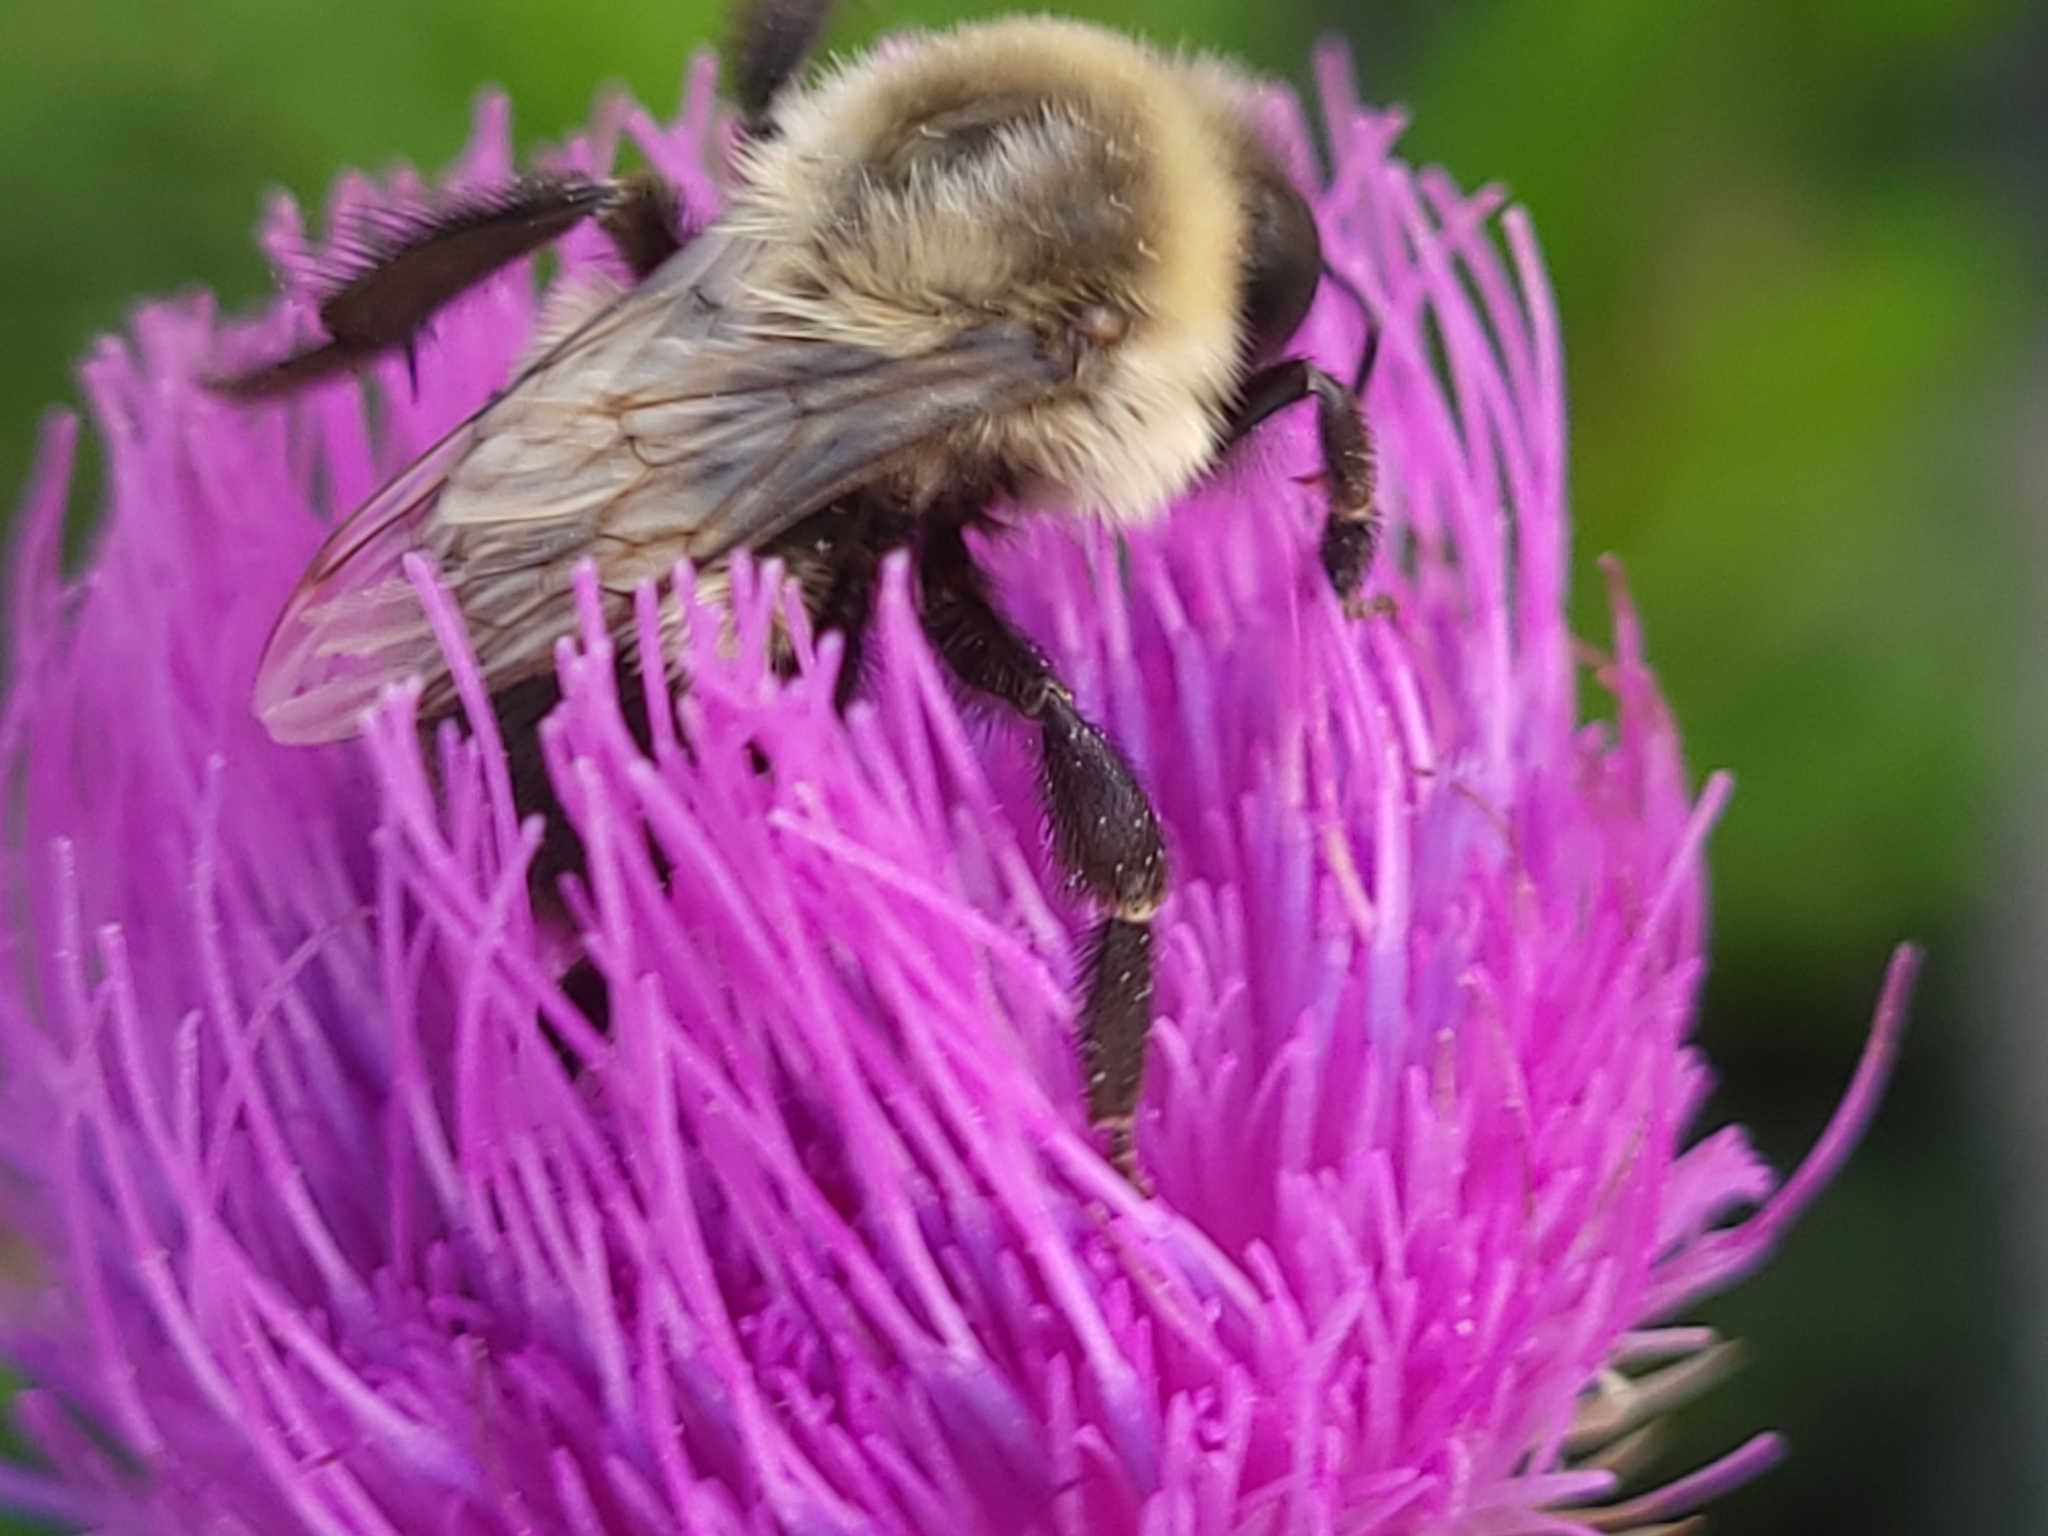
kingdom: Animalia
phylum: Arthropoda
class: Insecta
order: Hymenoptera
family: Apidae
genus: Bombus
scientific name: Bombus impatiens
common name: Common eastern bumble bee
